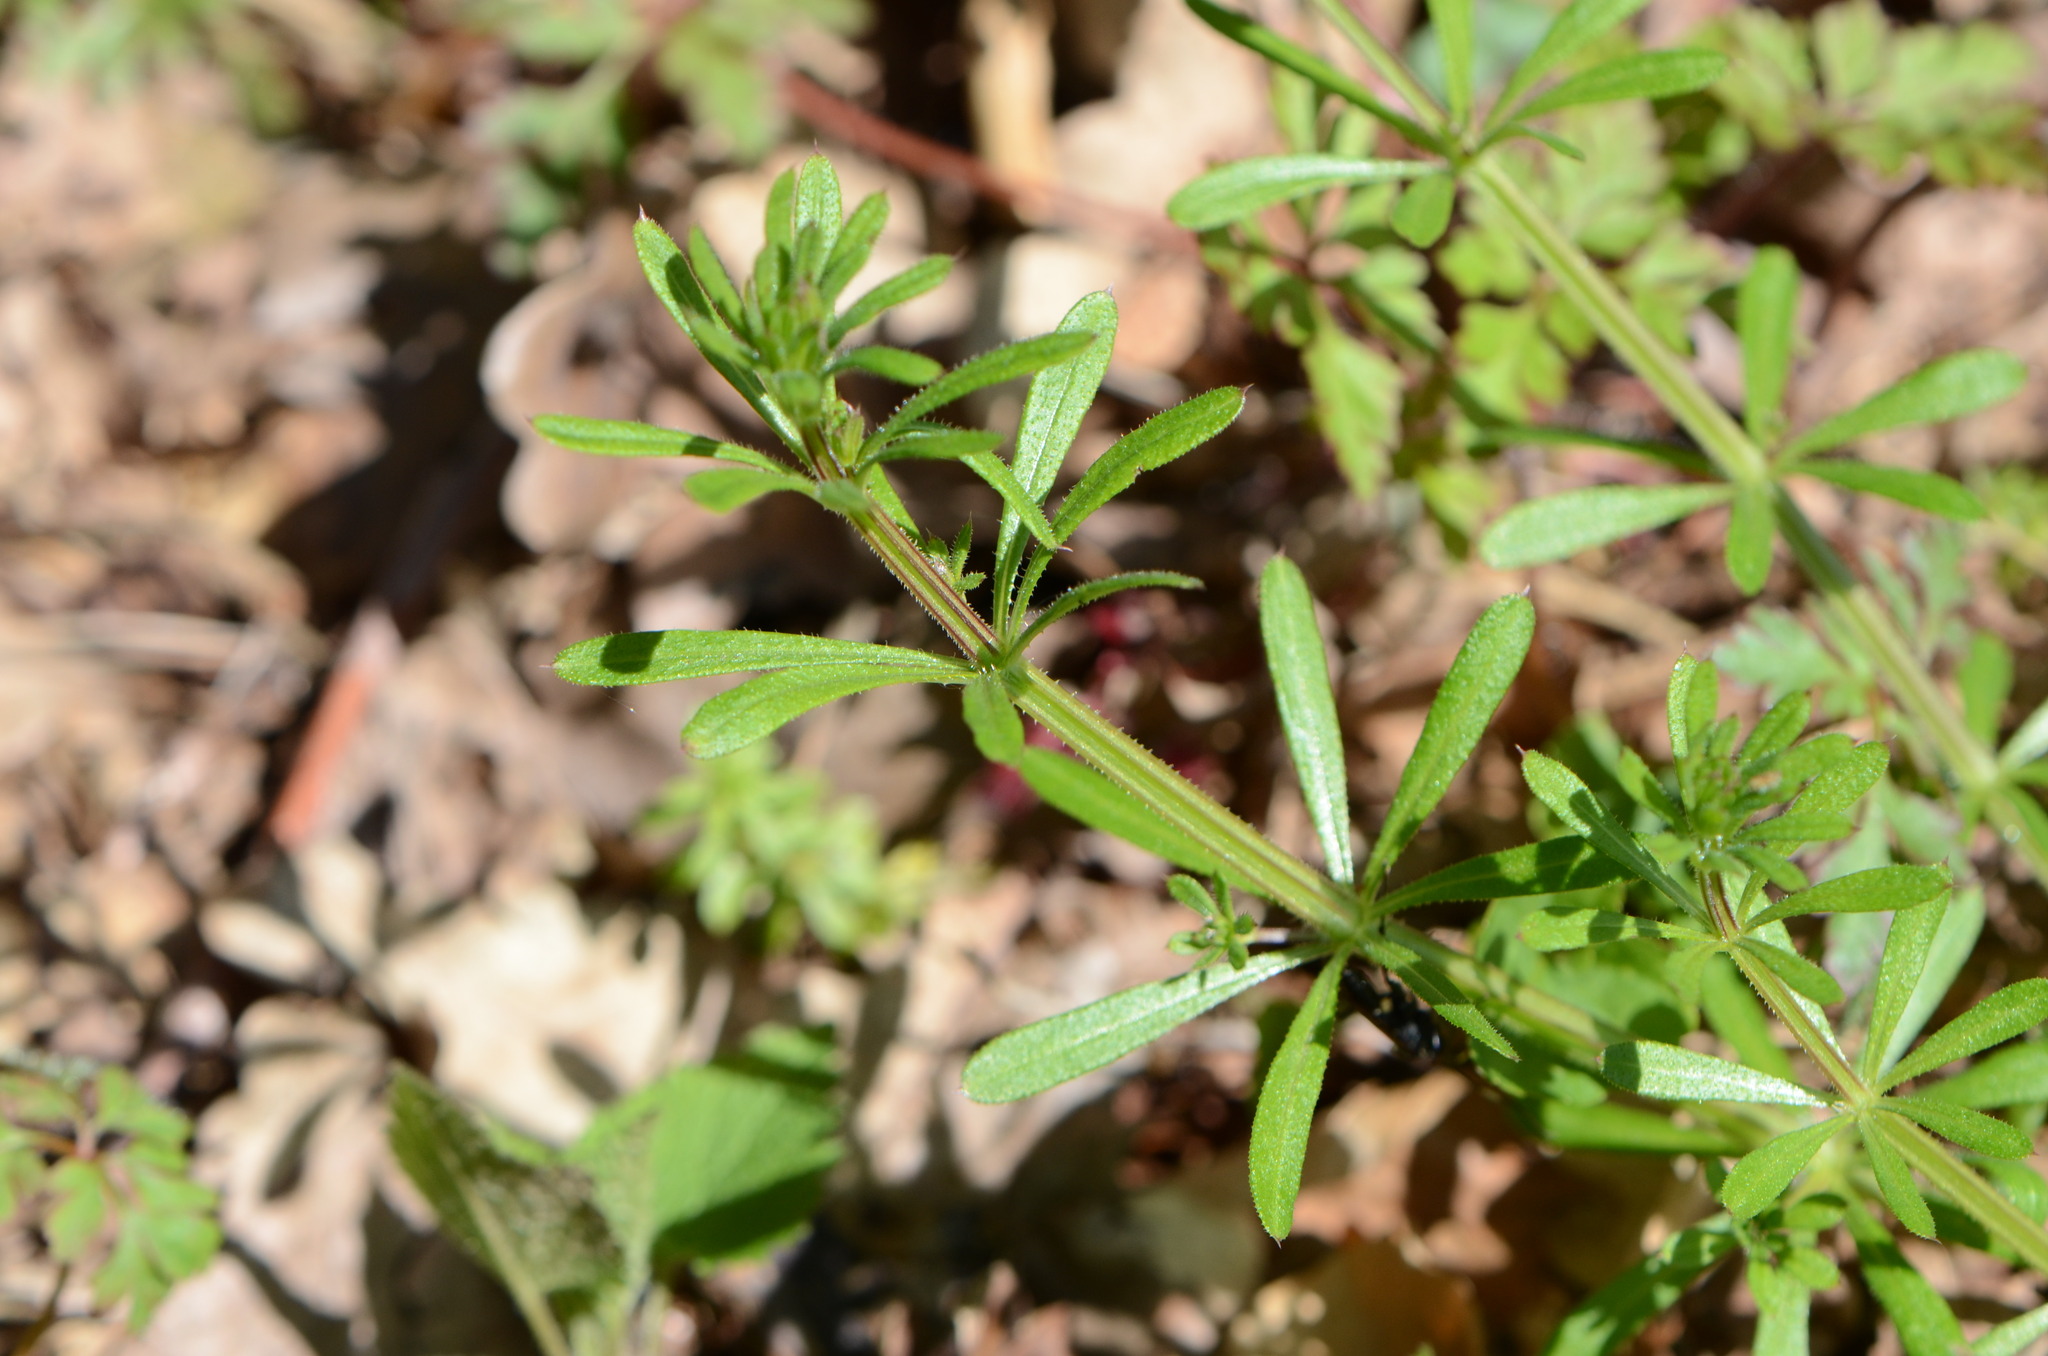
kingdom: Plantae
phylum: Tracheophyta
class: Magnoliopsida
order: Gentianales
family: Rubiaceae
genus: Galium
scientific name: Galium aparine
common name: Cleavers
